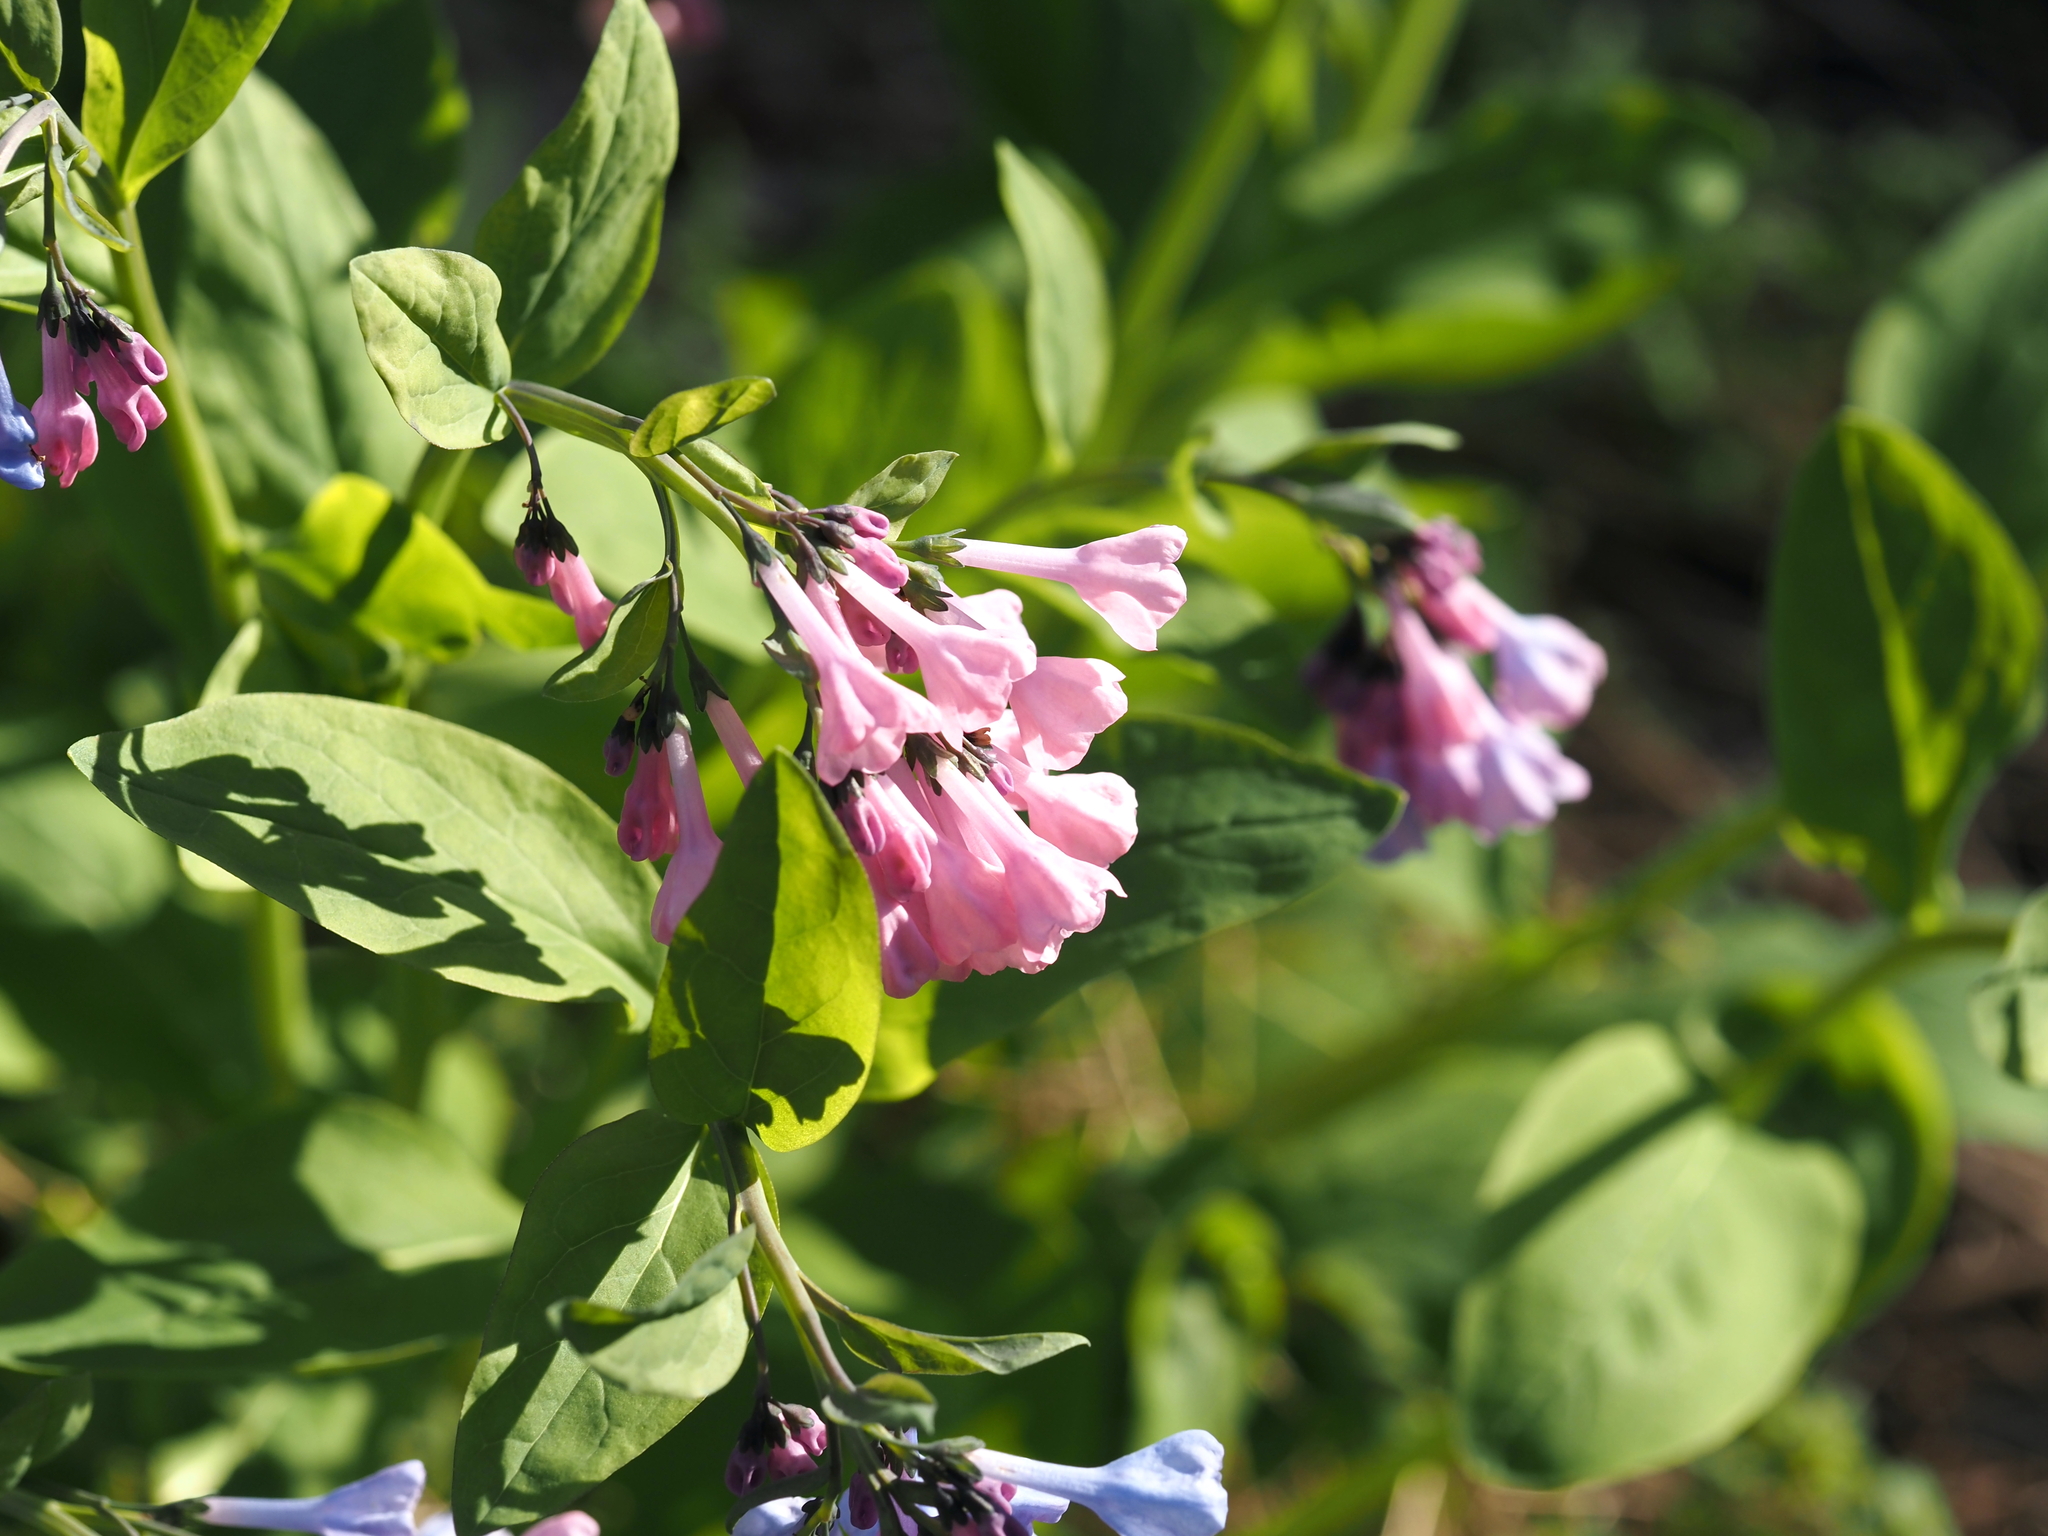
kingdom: Plantae
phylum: Tracheophyta
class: Magnoliopsida
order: Boraginales
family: Boraginaceae
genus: Mertensia
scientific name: Mertensia virginica
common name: Virginia bluebells
